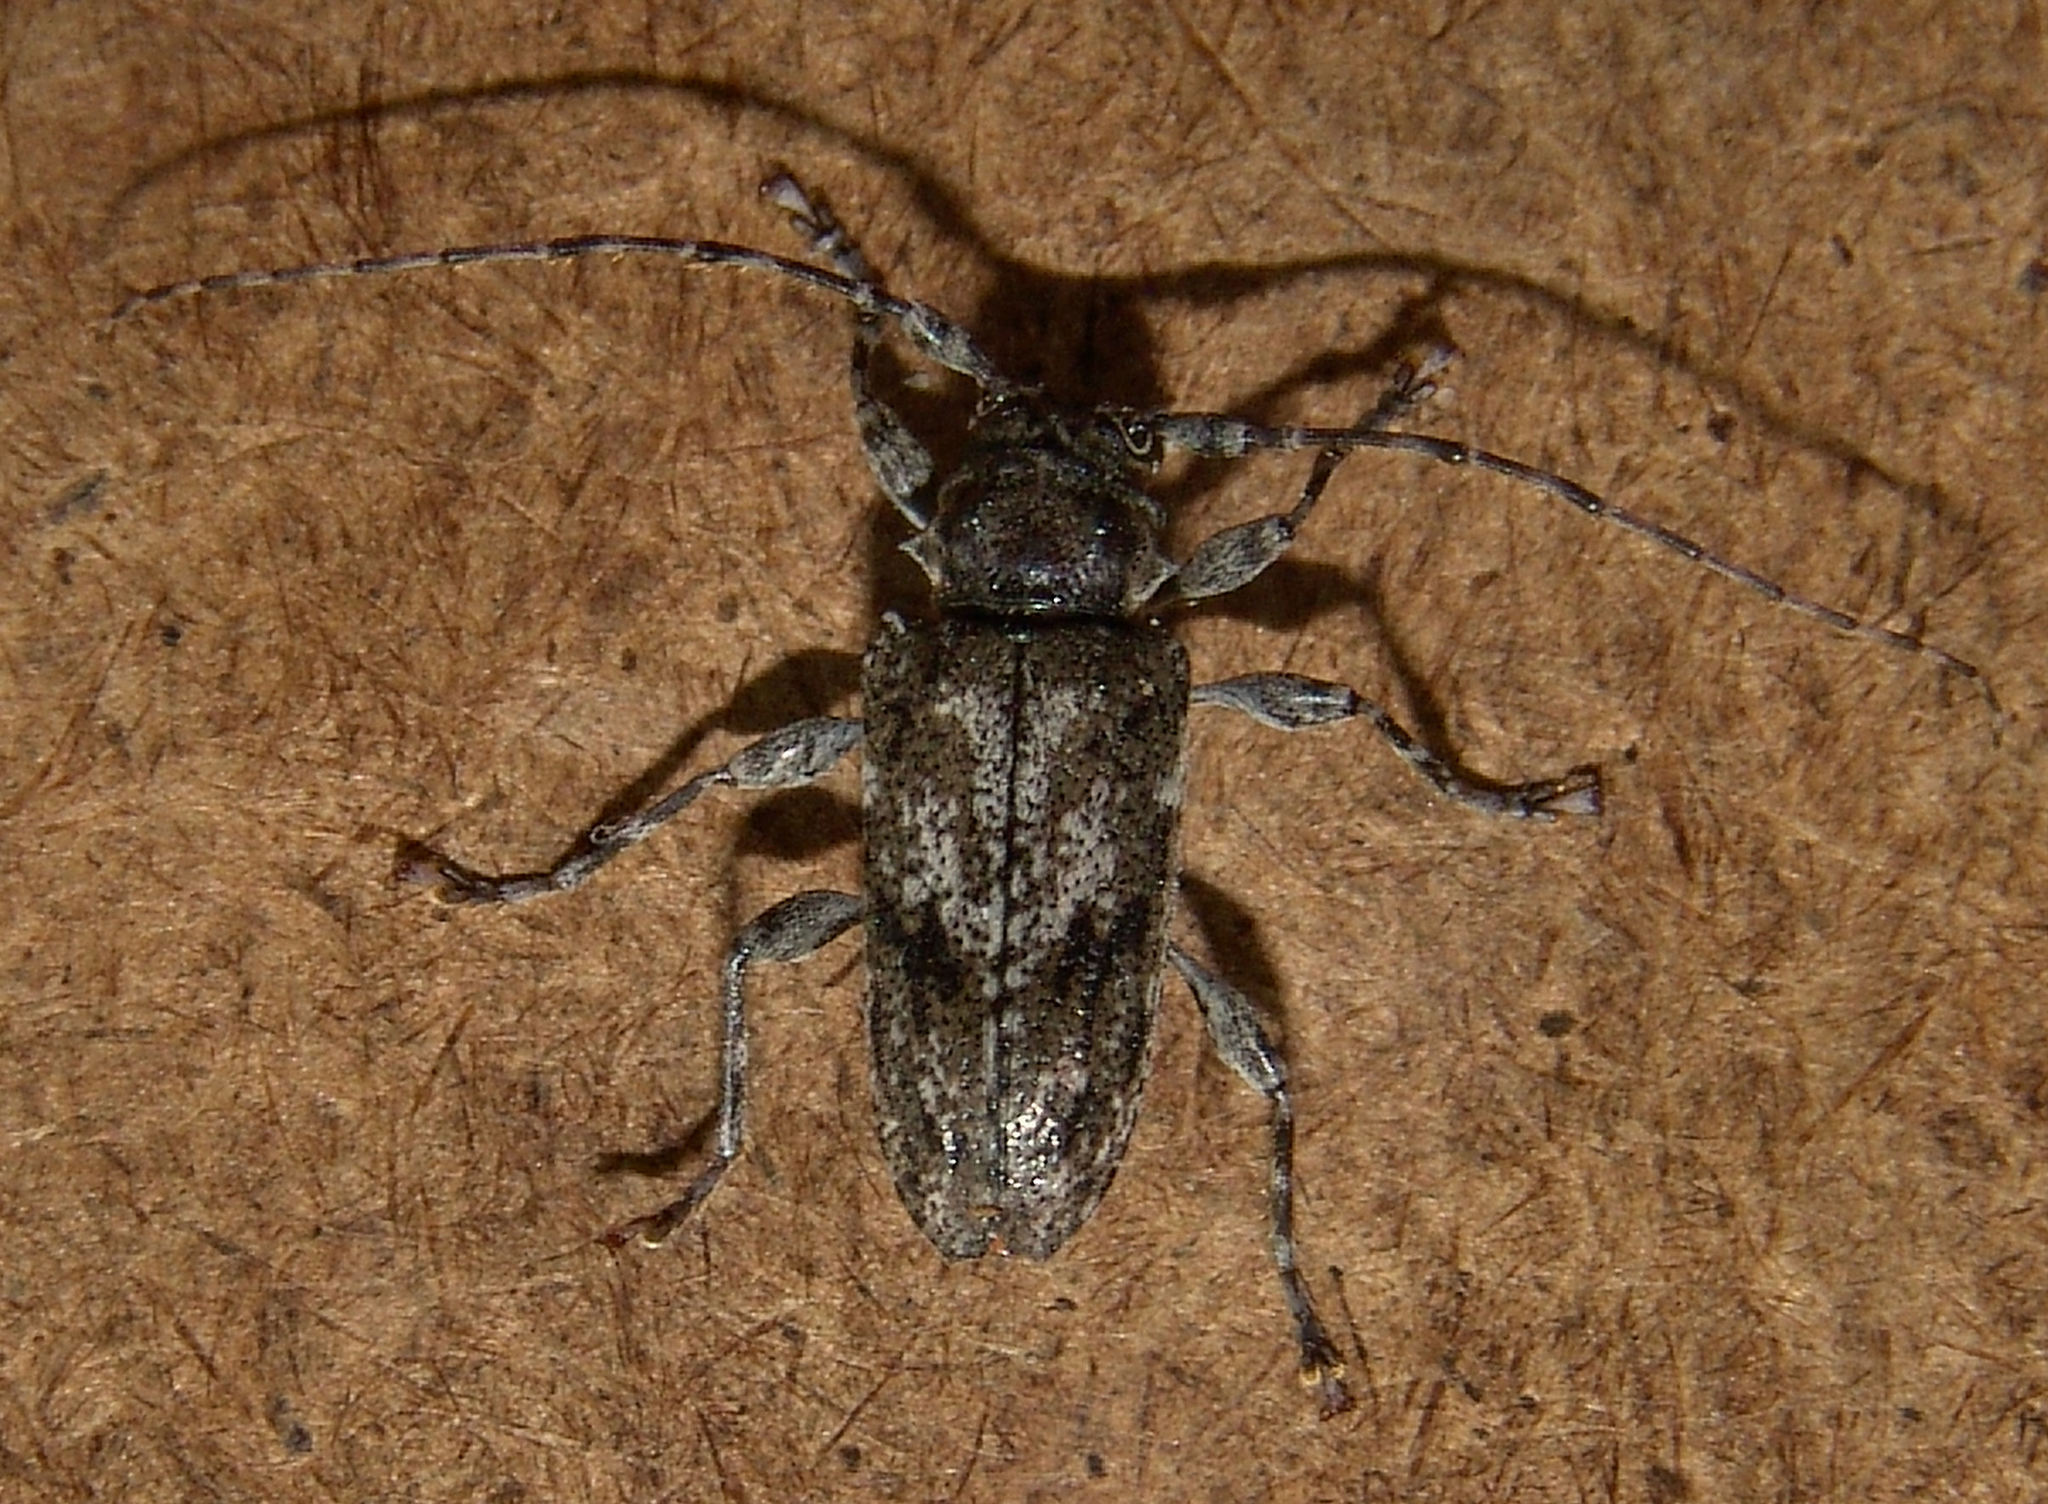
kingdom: Animalia
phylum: Arthropoda
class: Insecta
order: Coleoptera
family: Cerambycidae
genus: Aegomorphus
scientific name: Aegomorphus modestus
